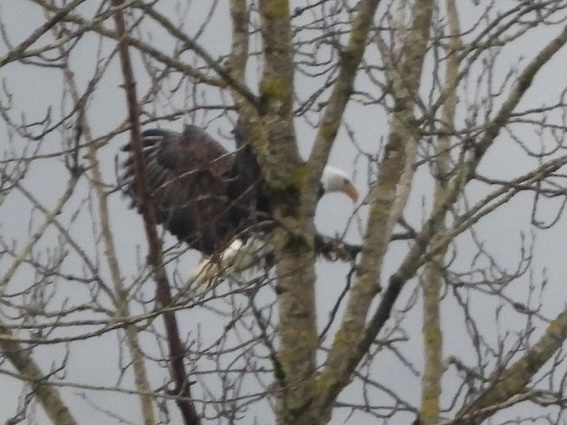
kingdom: Animalia
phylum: Chordata
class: Aves
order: Accipitriformes
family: Accipitridae
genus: Haliaeetus
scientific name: Haliaeetus leucocephalus
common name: Bald eagle
